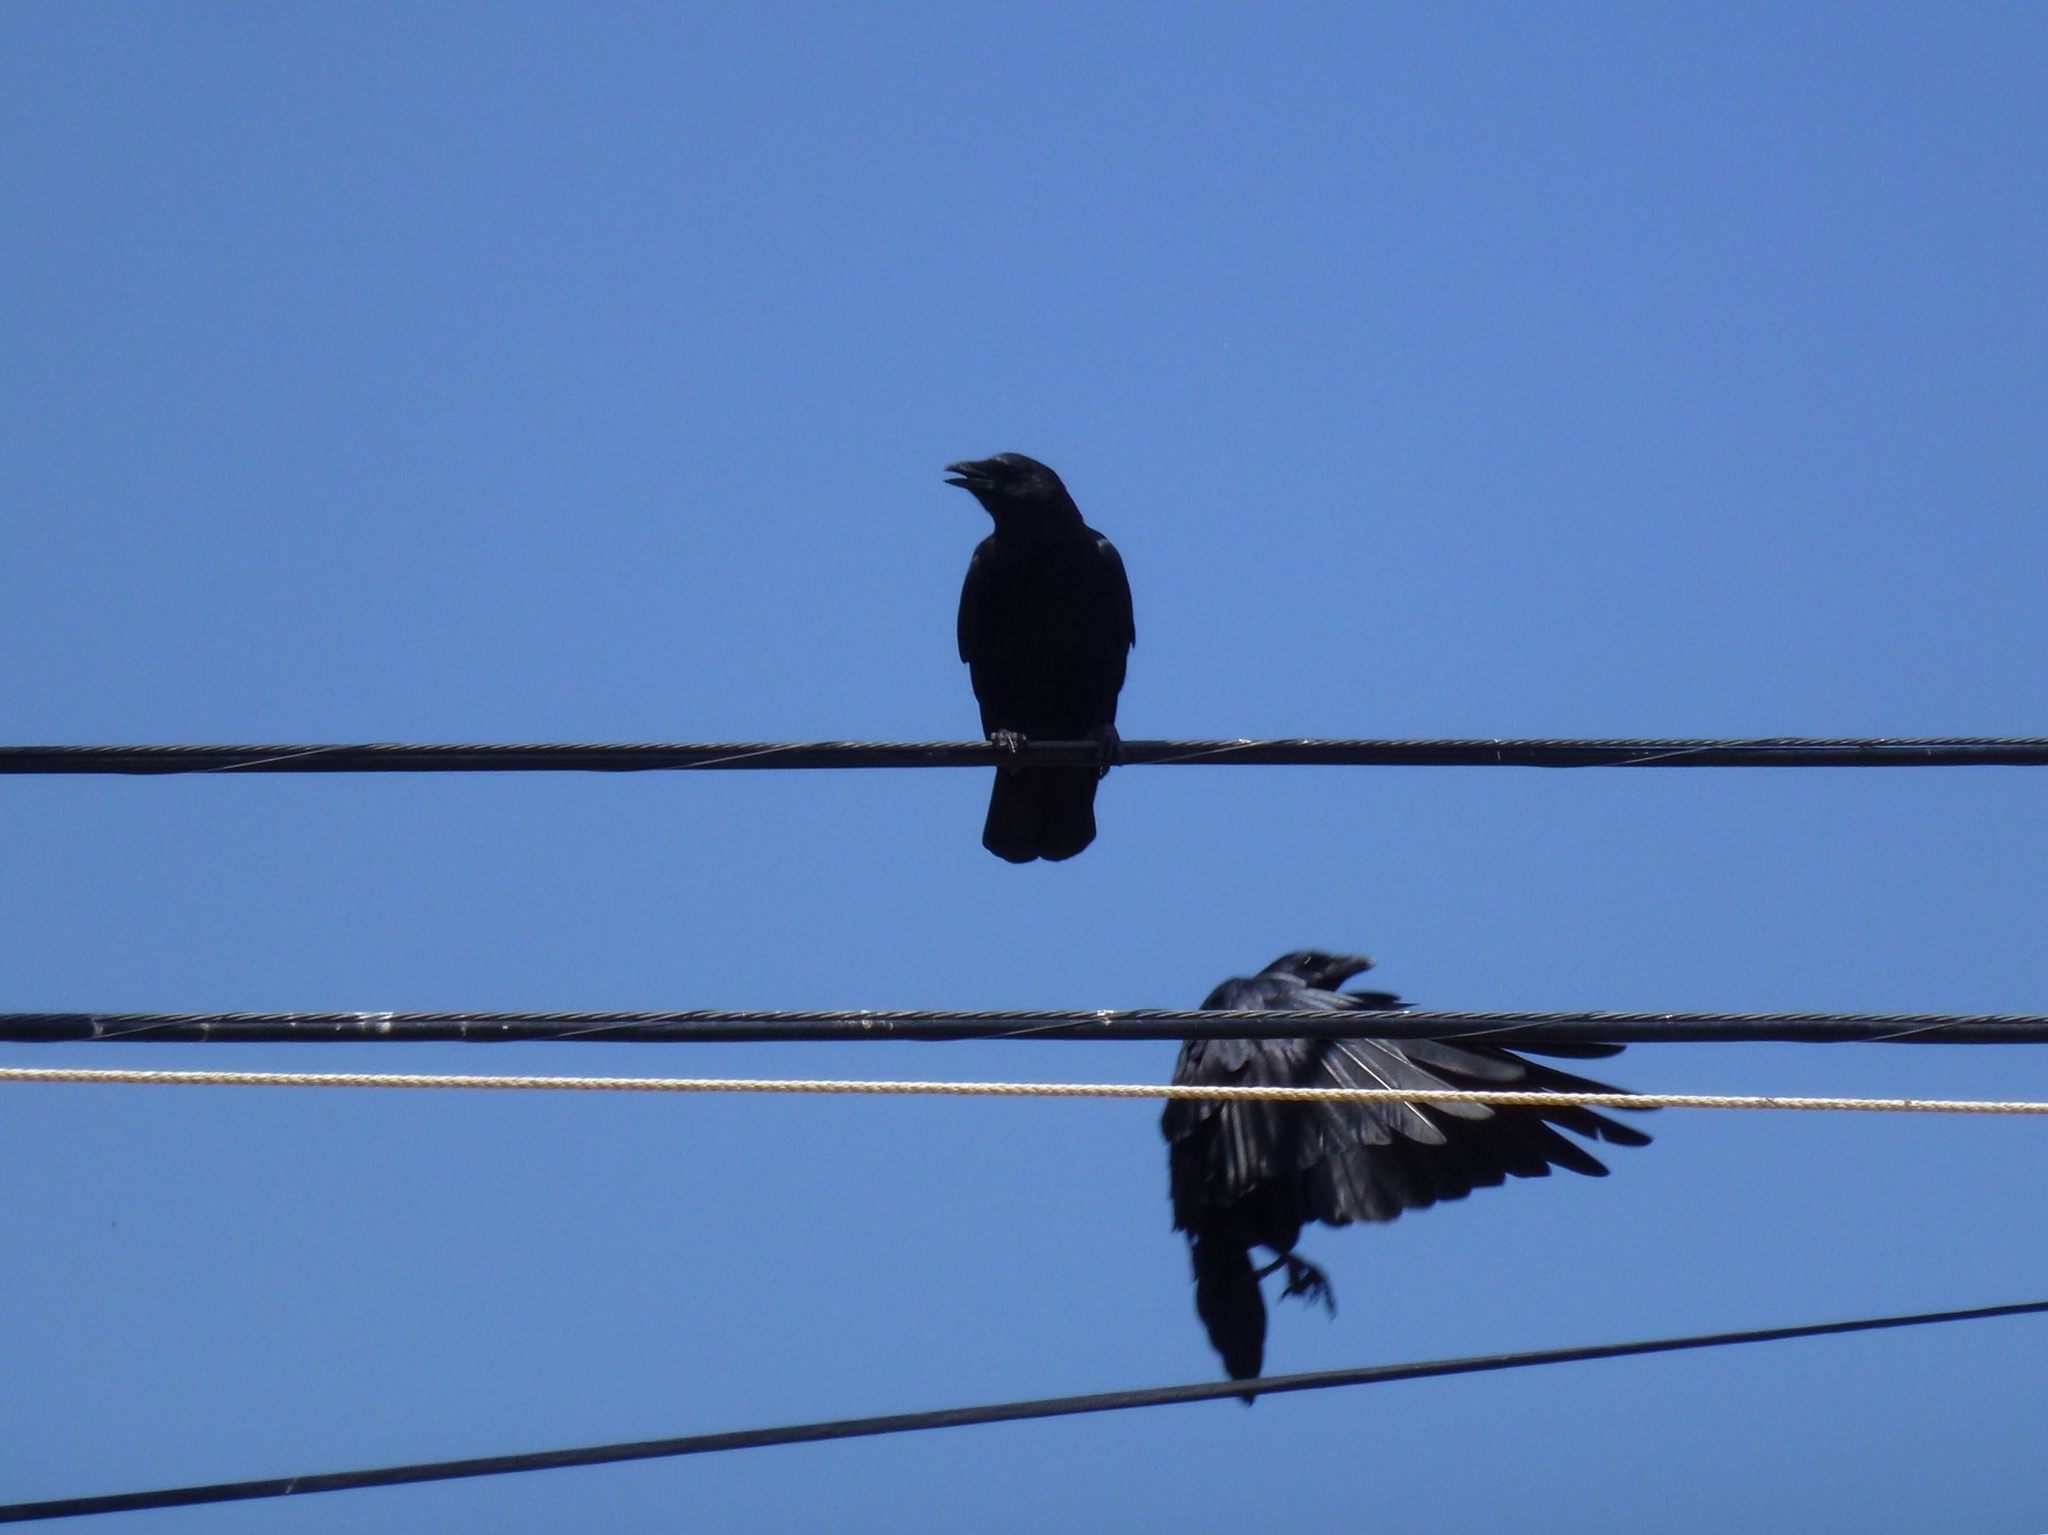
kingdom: Animalia
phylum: Chordata
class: Aves
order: Passeriformes
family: Corvidae
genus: Corvus
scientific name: Corvus brachyrhynchos
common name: American crow
